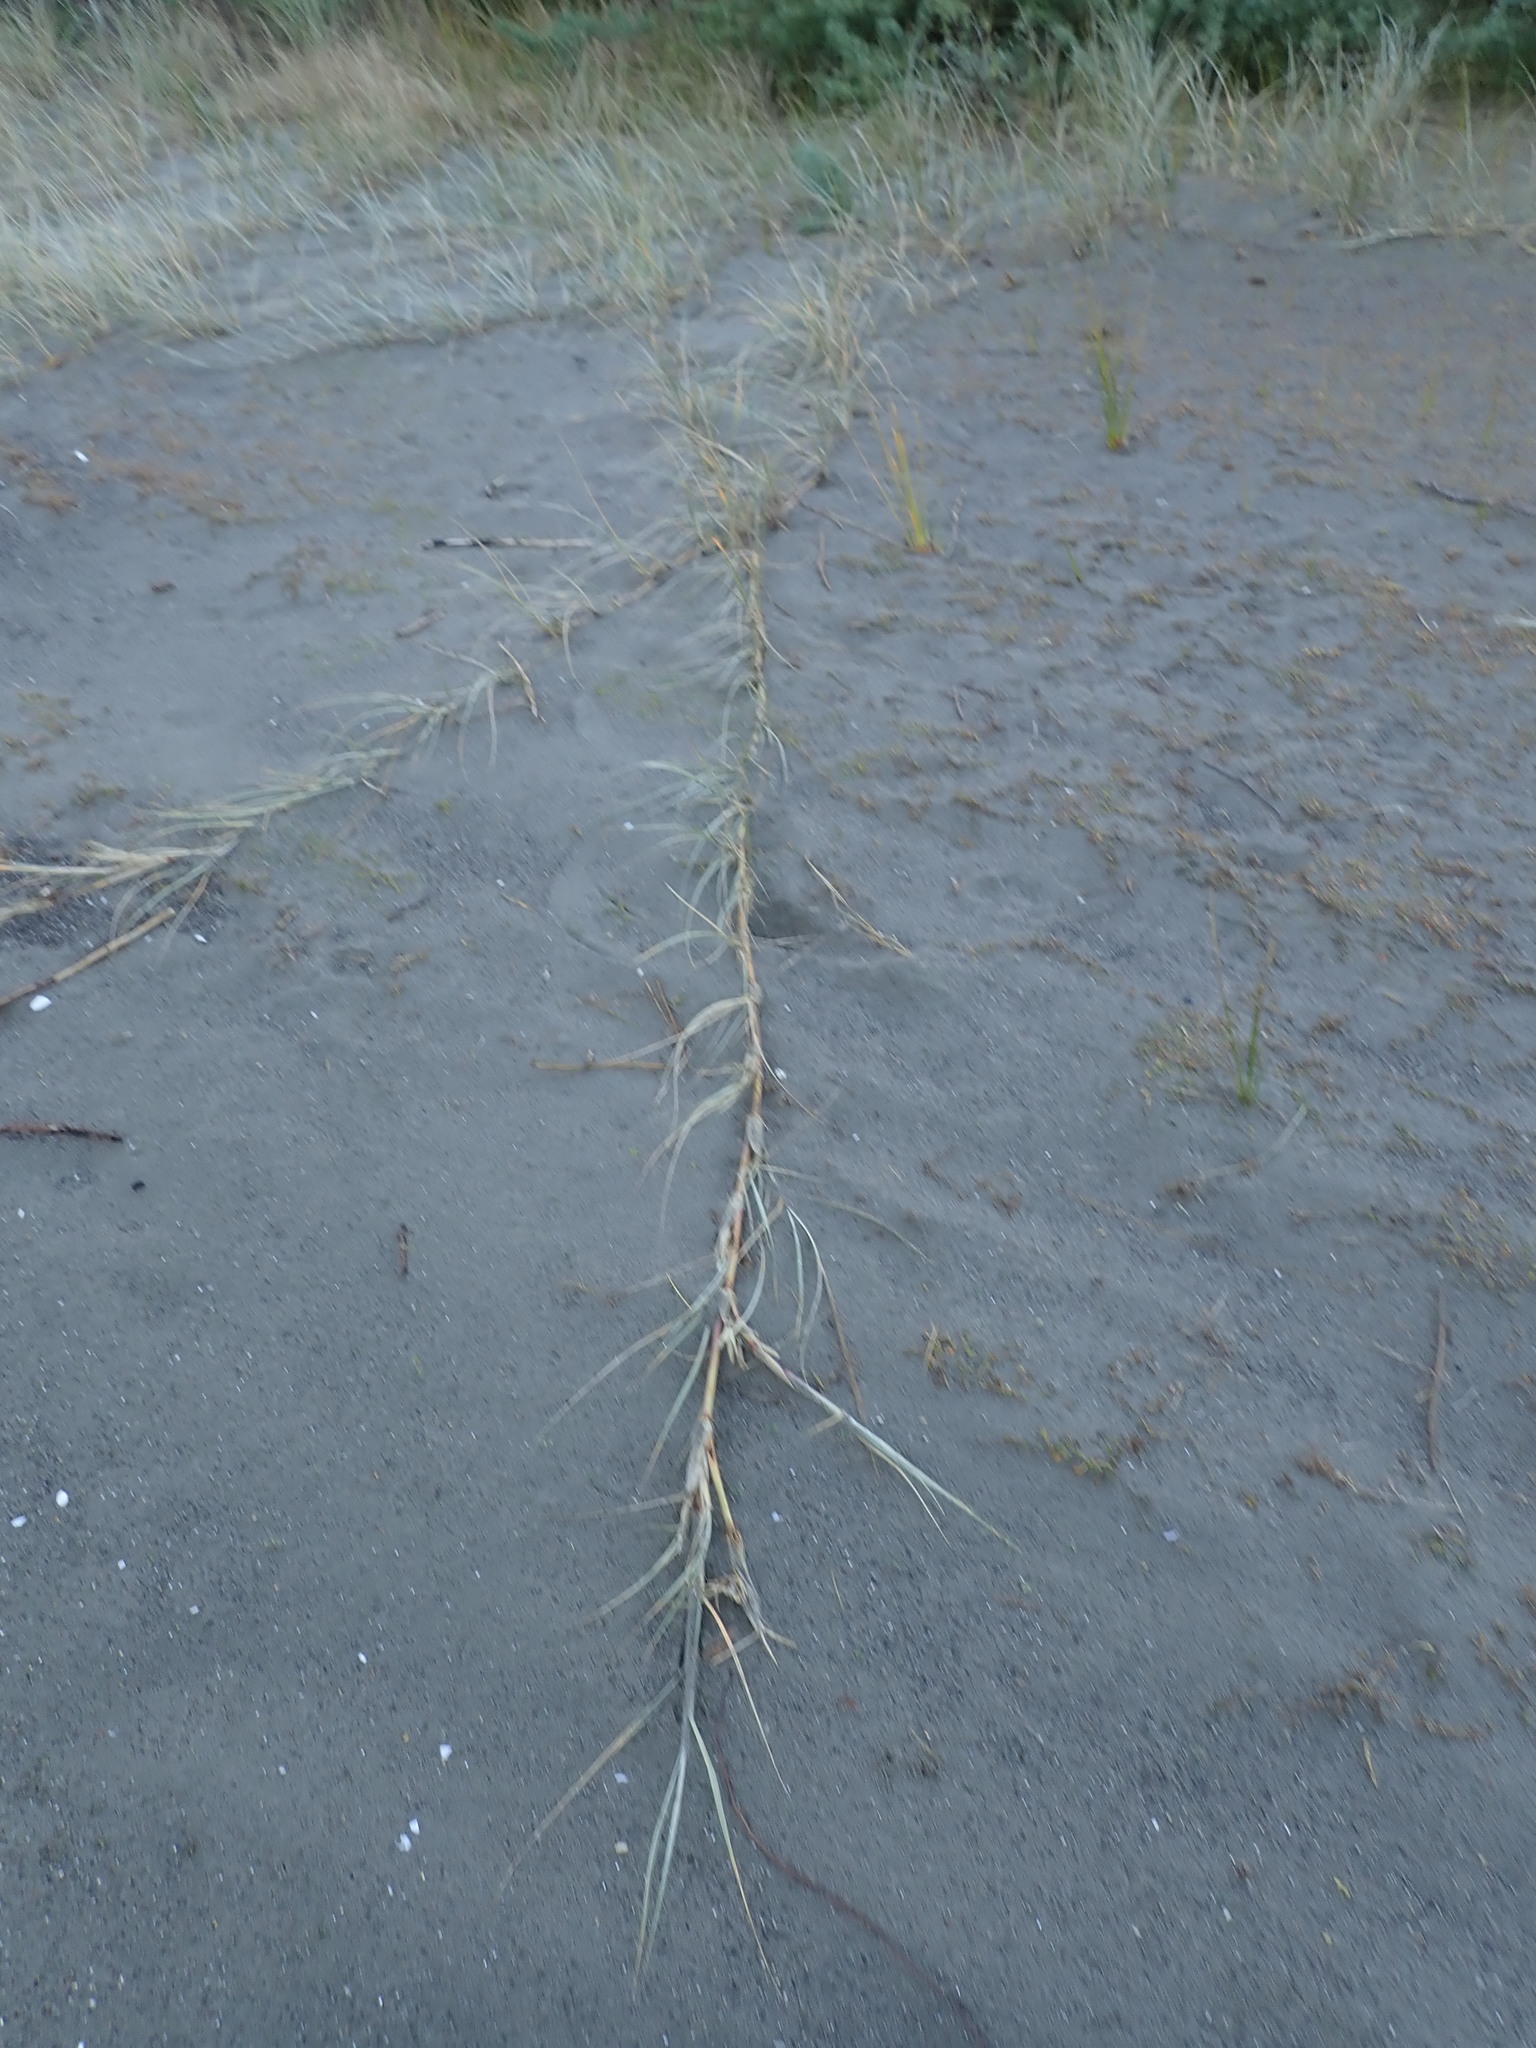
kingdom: Plantae
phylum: Tracheophyta
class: Liliopsida
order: Poales
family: Poaceae
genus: Spinifex
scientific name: Spinifex sericeus
